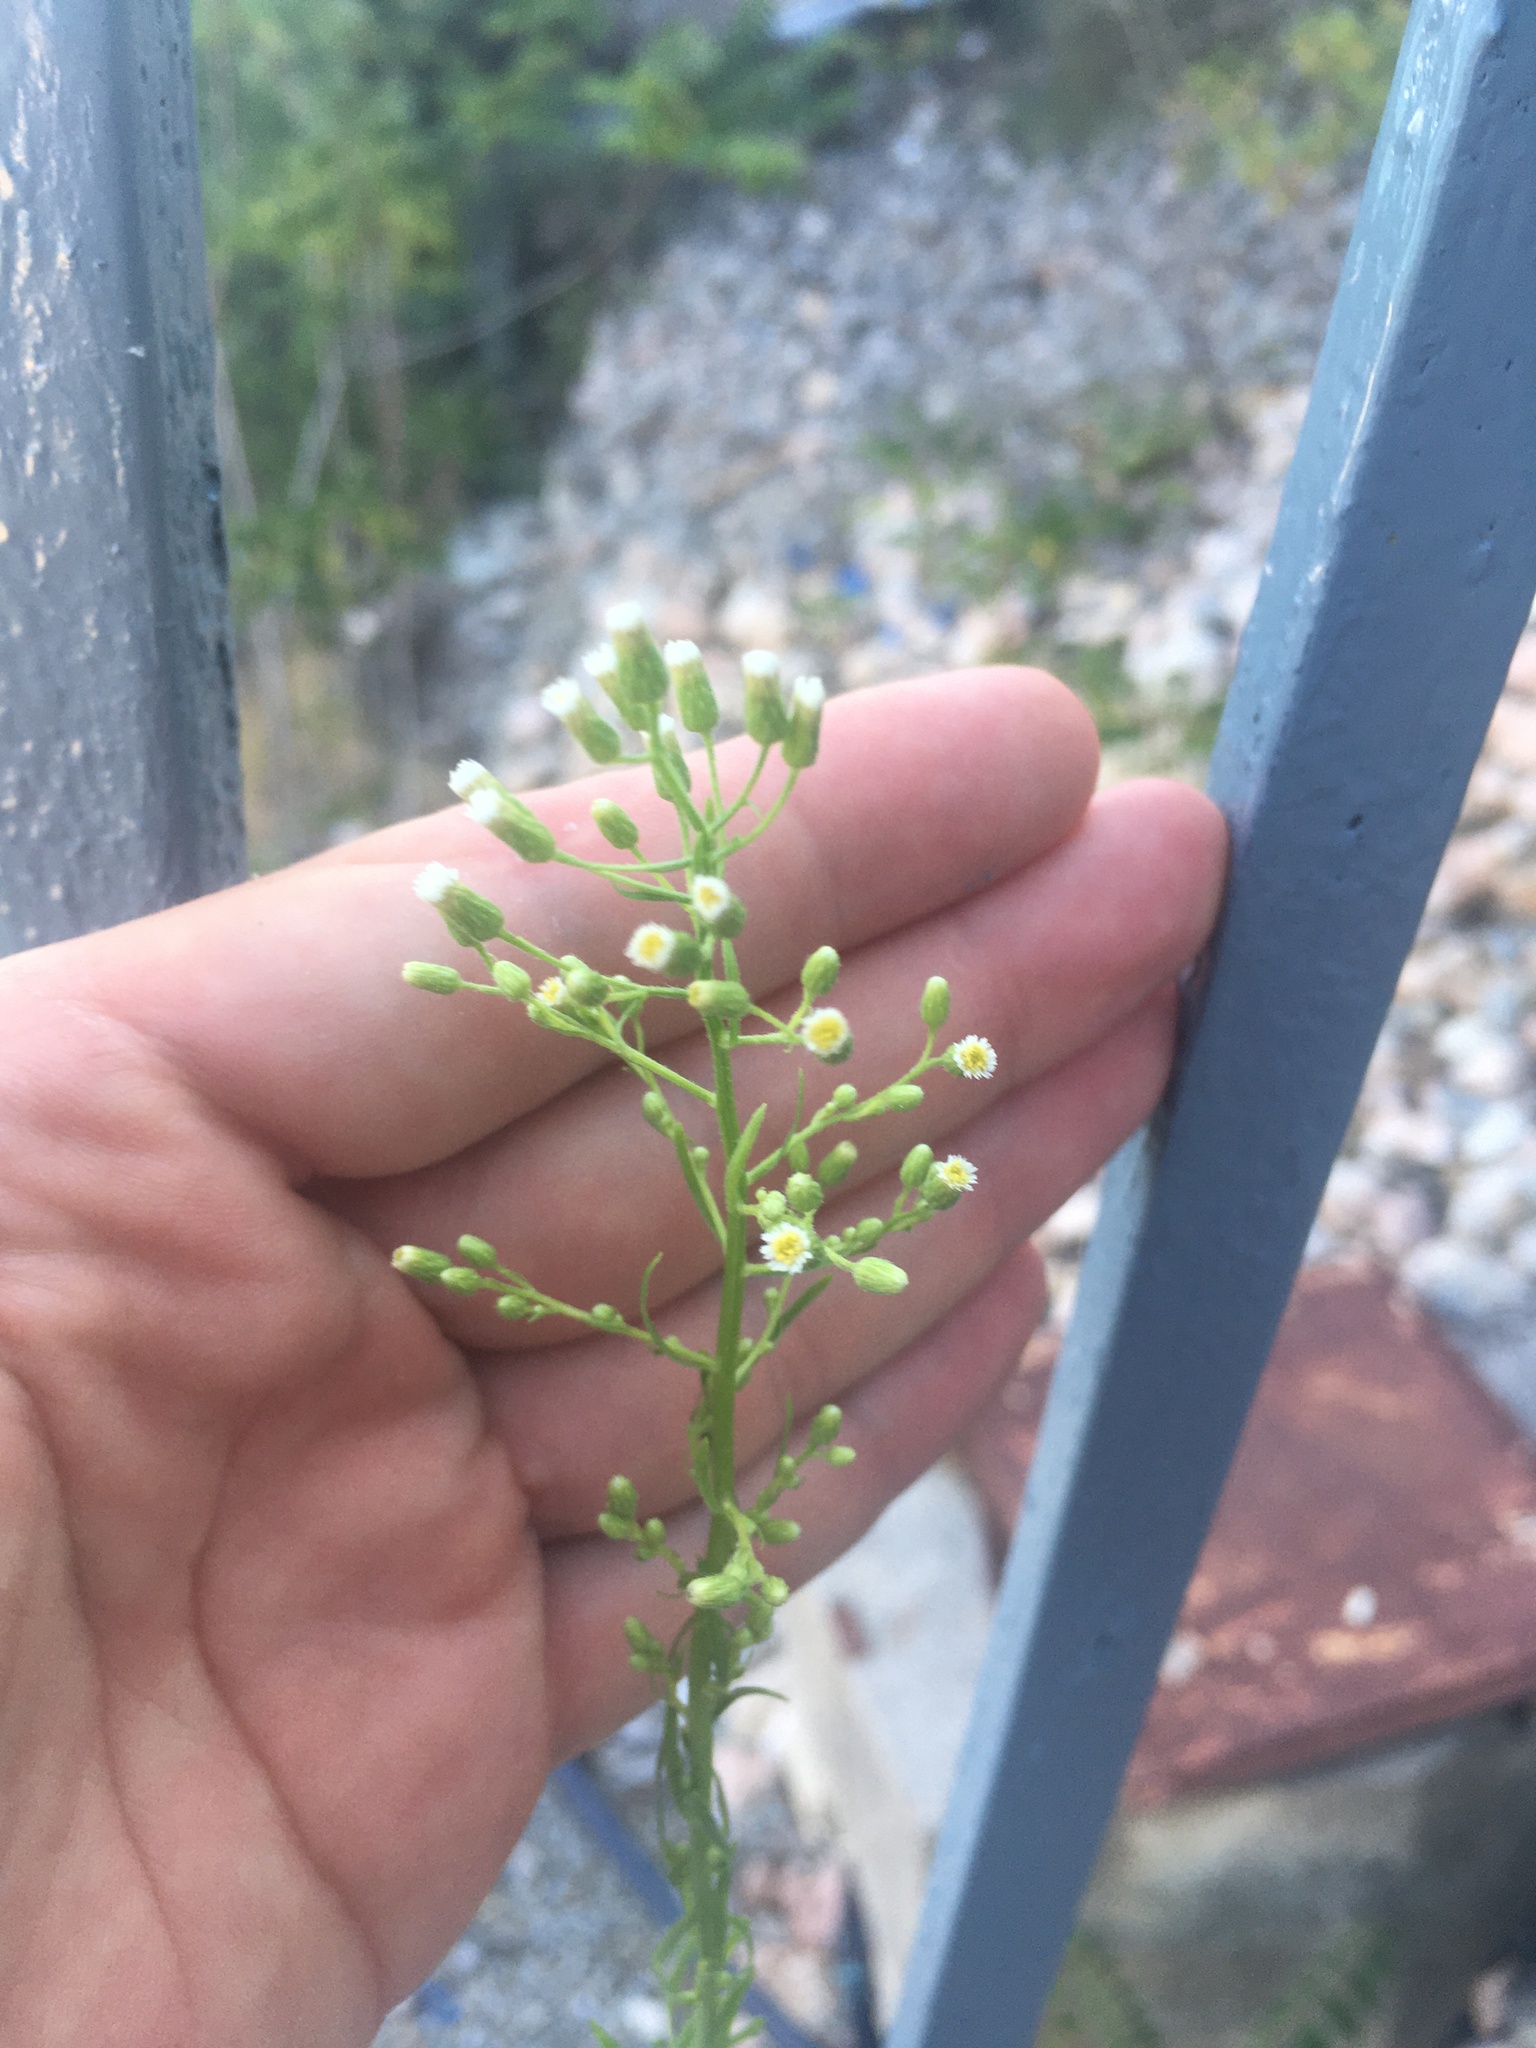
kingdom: Plantae
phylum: Tracheophyta
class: Magnoliopsida
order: Asterales
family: Asteraceae
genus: Erigeron
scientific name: Erigeron canadensis
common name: Canadian fleabane
